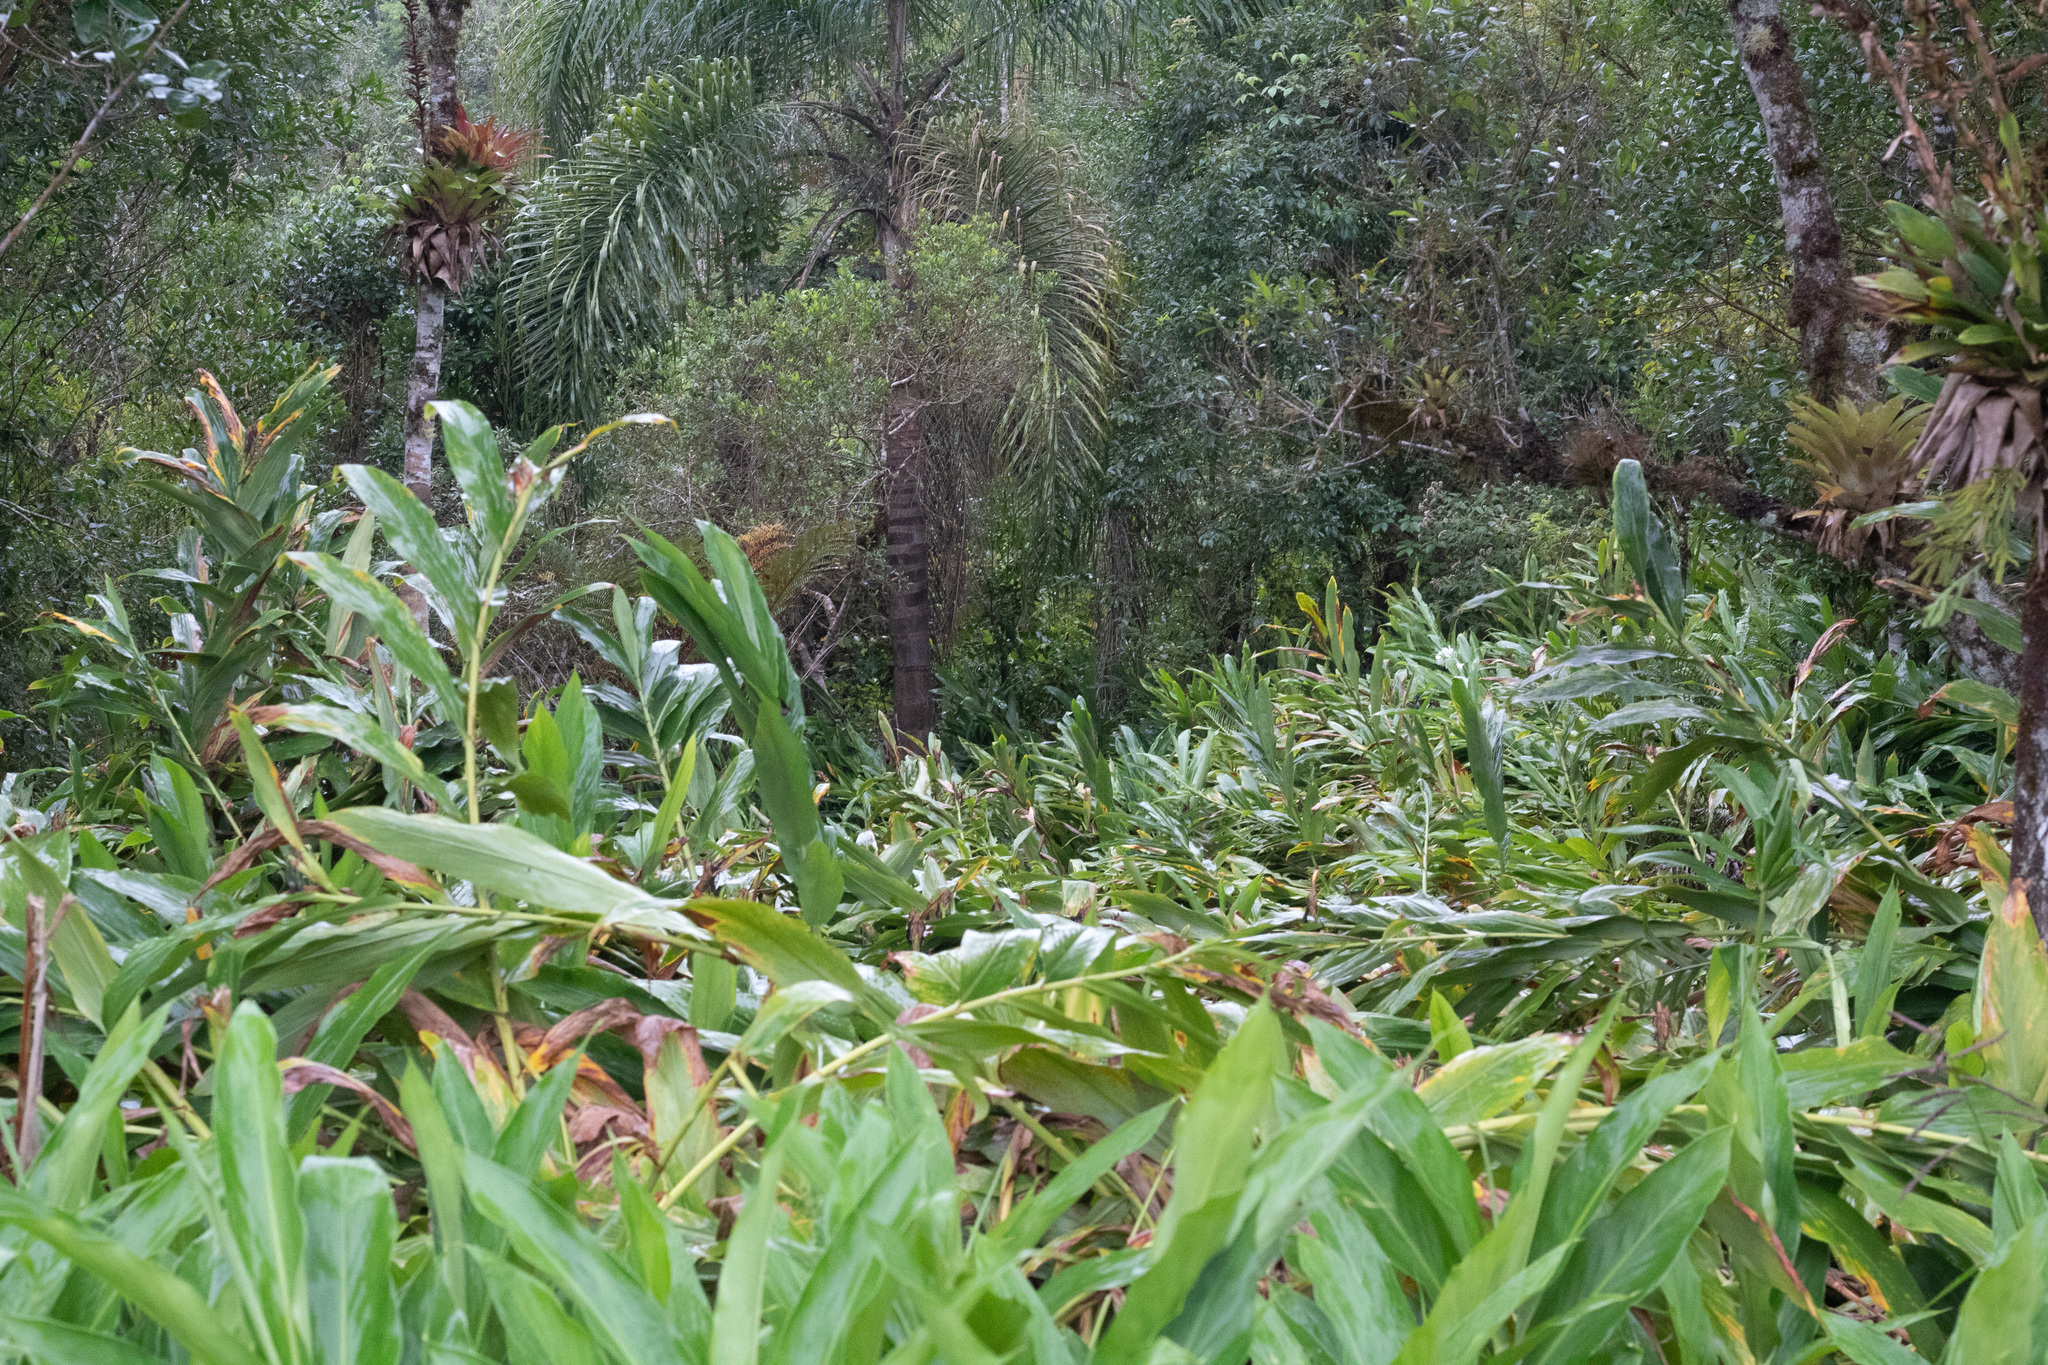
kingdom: Plantae
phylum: Tracheophyta
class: Liliopsida
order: Zingiberales
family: Zingiberaceae
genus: Hedychium
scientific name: Hedychium coronarium
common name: White garland-lily
